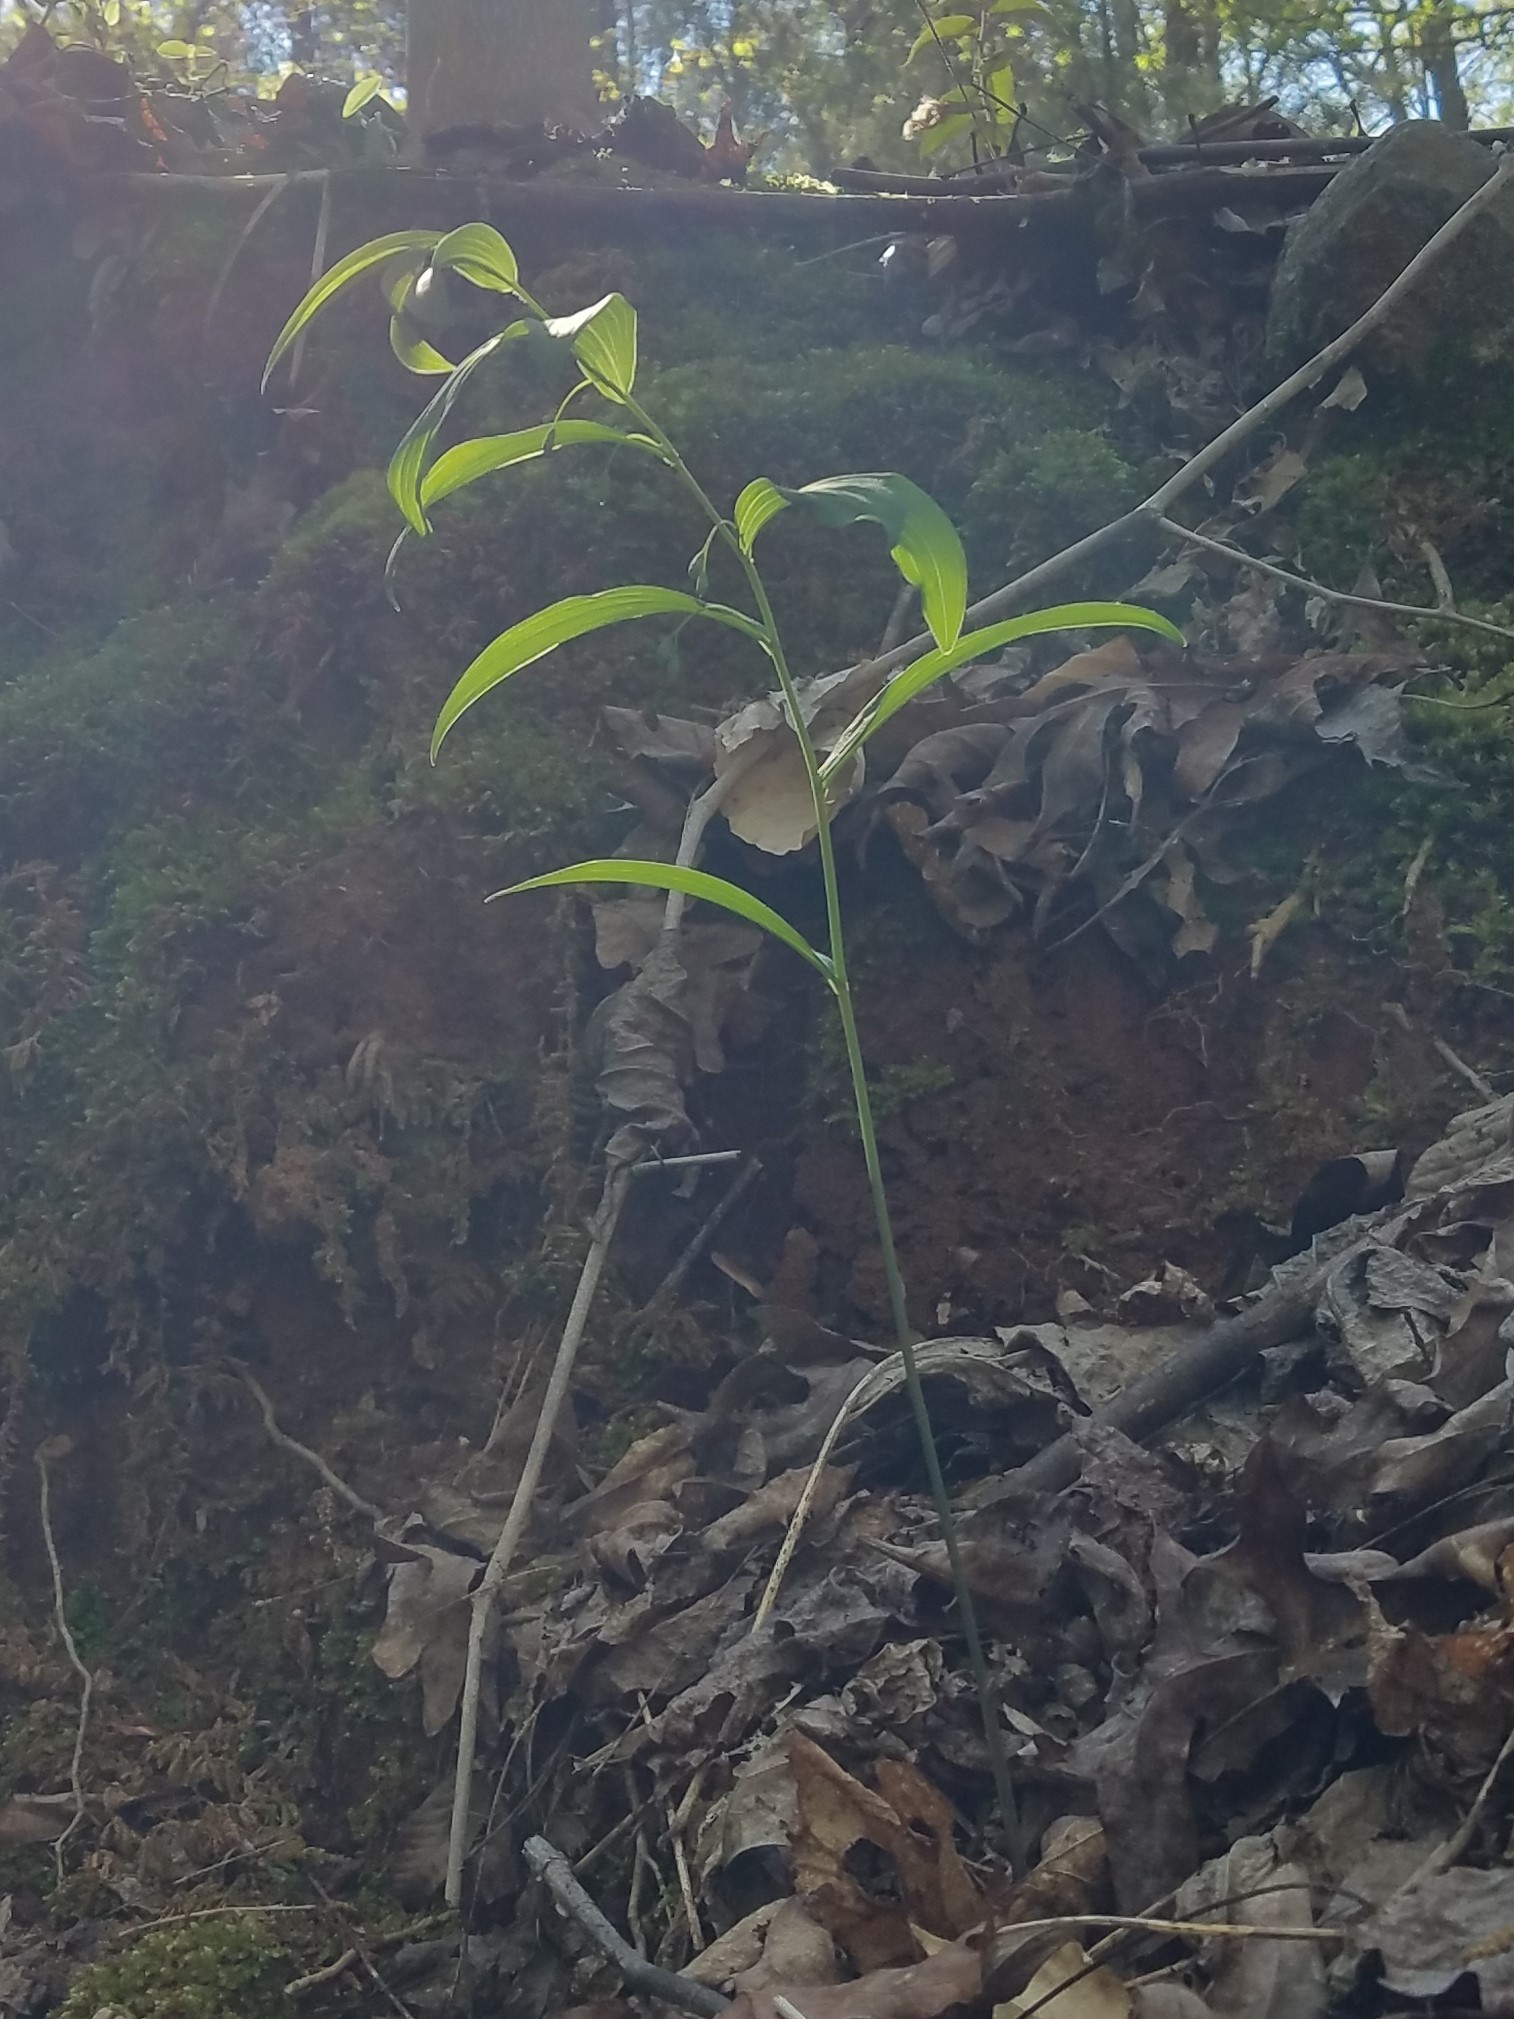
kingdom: Plantae
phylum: Tracheophyta
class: Liliopsida
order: Asparagales
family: Asparagaceae
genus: Polygonatum
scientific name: Polygonatum biflorum
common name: American solomon's-seal
